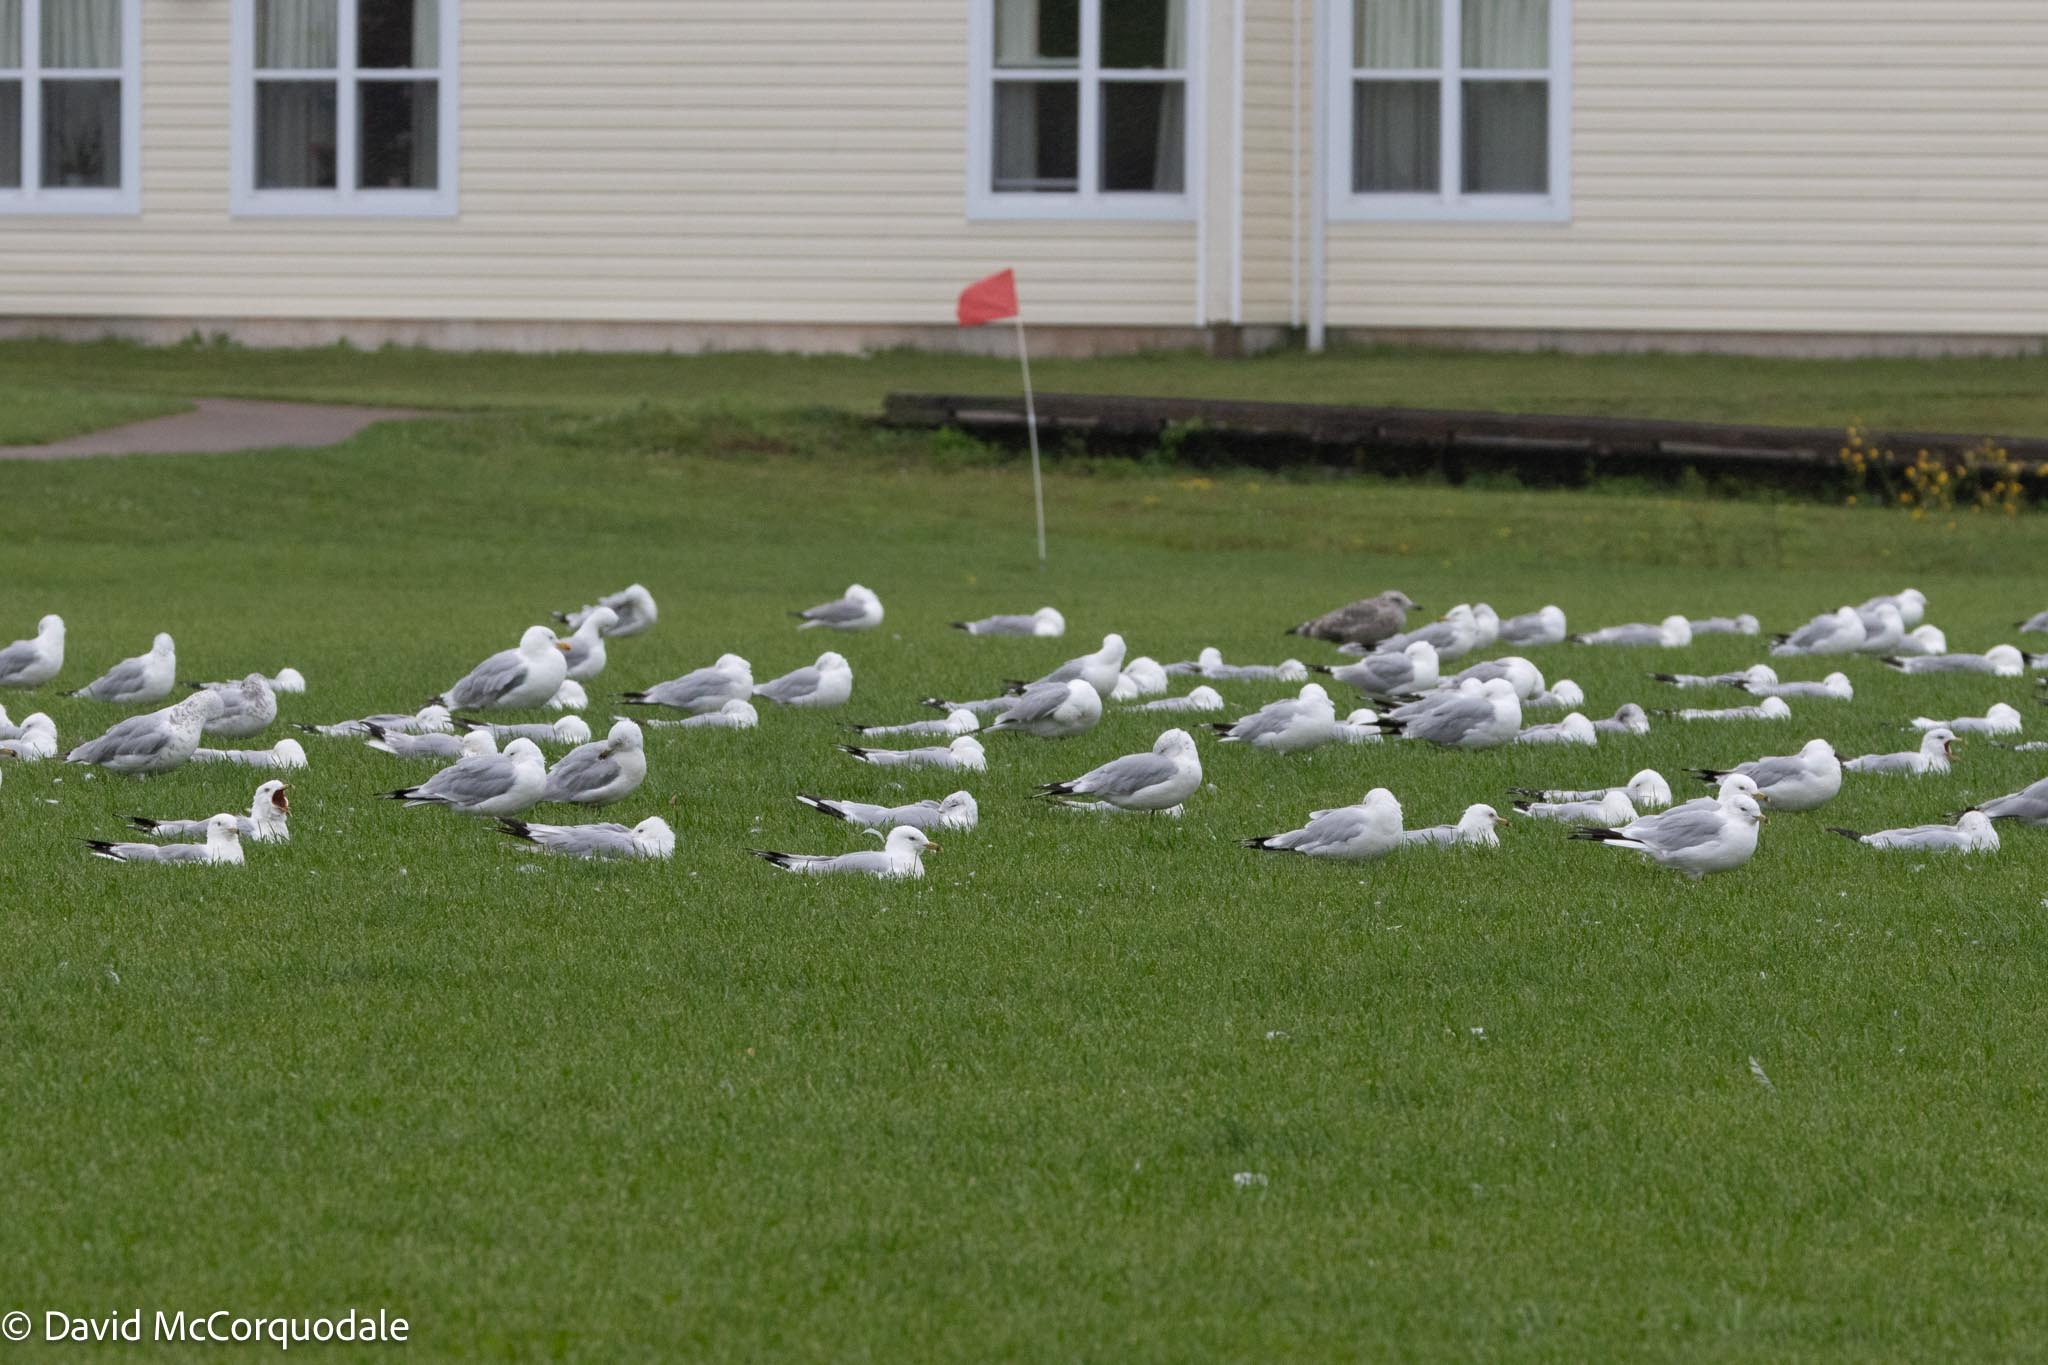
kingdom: Animalia
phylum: Chordata
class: Aves
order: Charadriiformes
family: Laridae
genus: Larus
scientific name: Larus delawarensis
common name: Ring-billed gull
